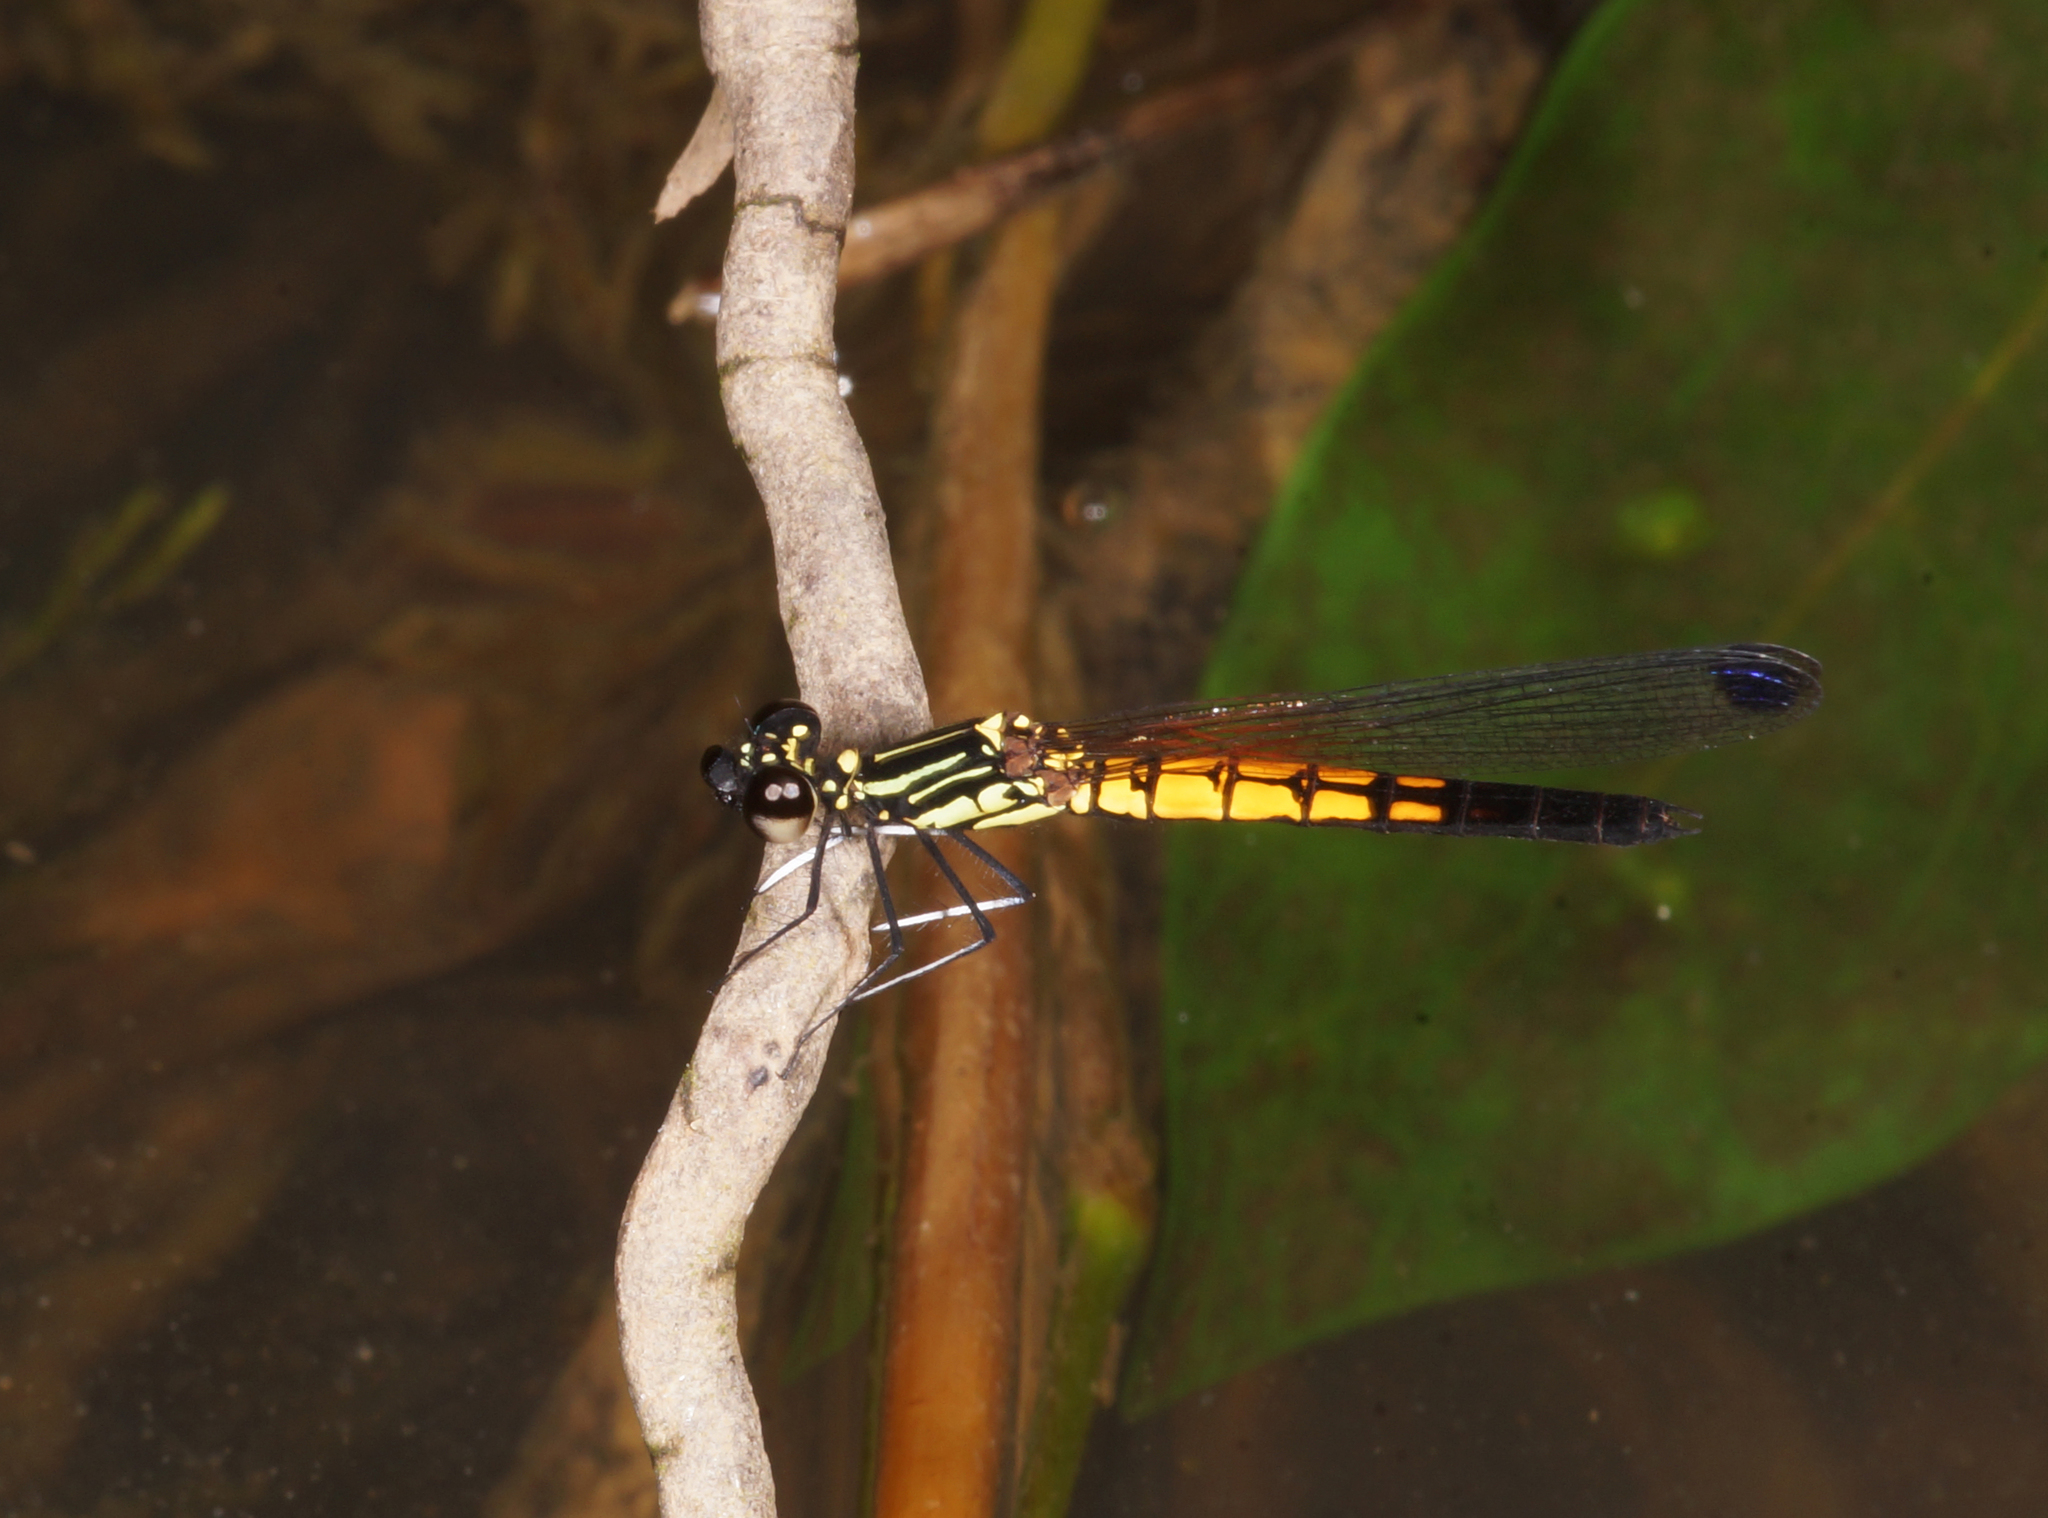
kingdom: Animalia
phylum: Arthropoda
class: Insecta
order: Odonata
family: Chlorocyphidae
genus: Libellago
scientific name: Libellago lineata
